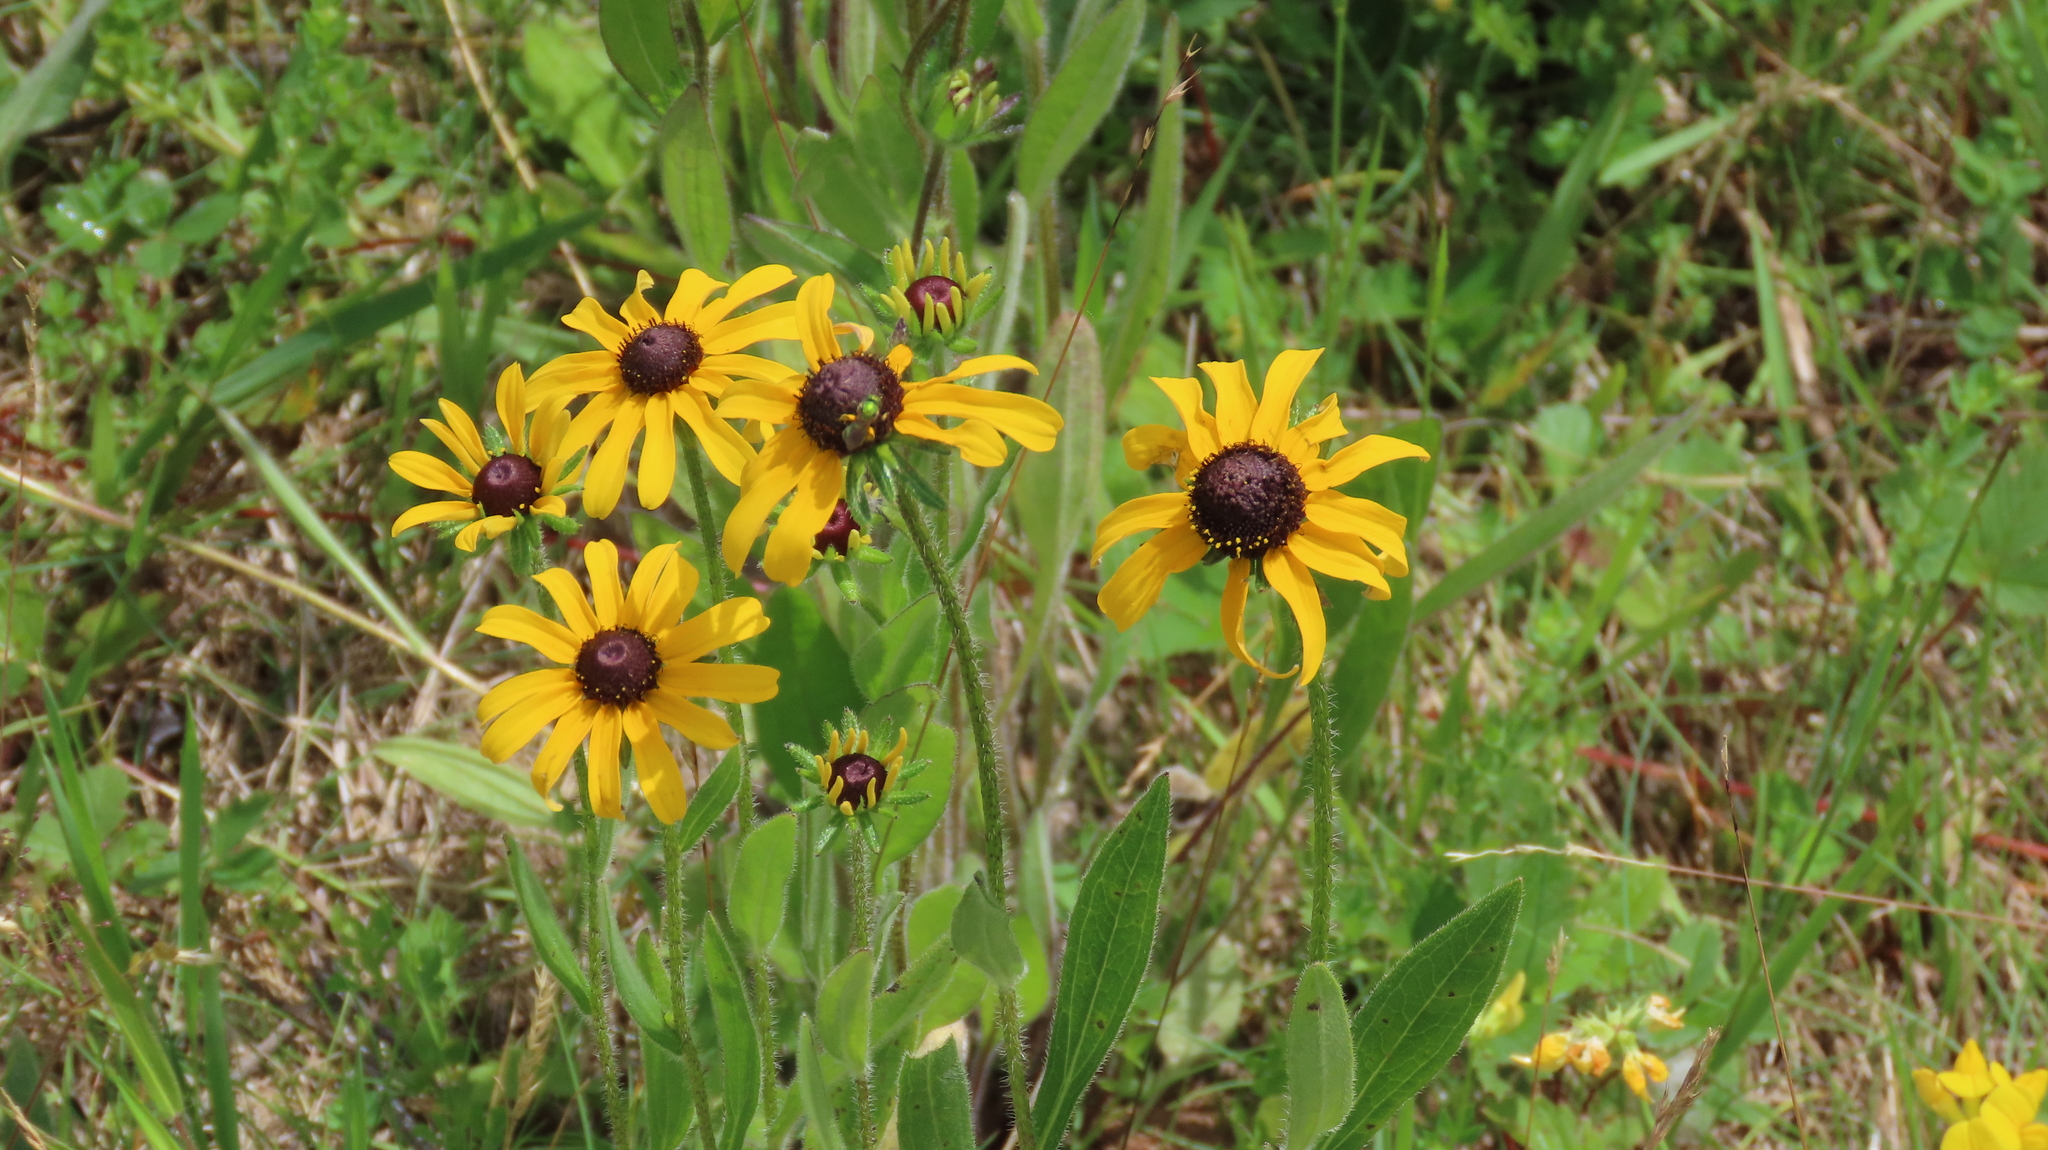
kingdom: Plantae
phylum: Tracheophyta
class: Magnoliopsida
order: Asterales
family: Asteraceae
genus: Rudbeckia
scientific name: Rudbeckia hirta
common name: Black-eyed-susan
